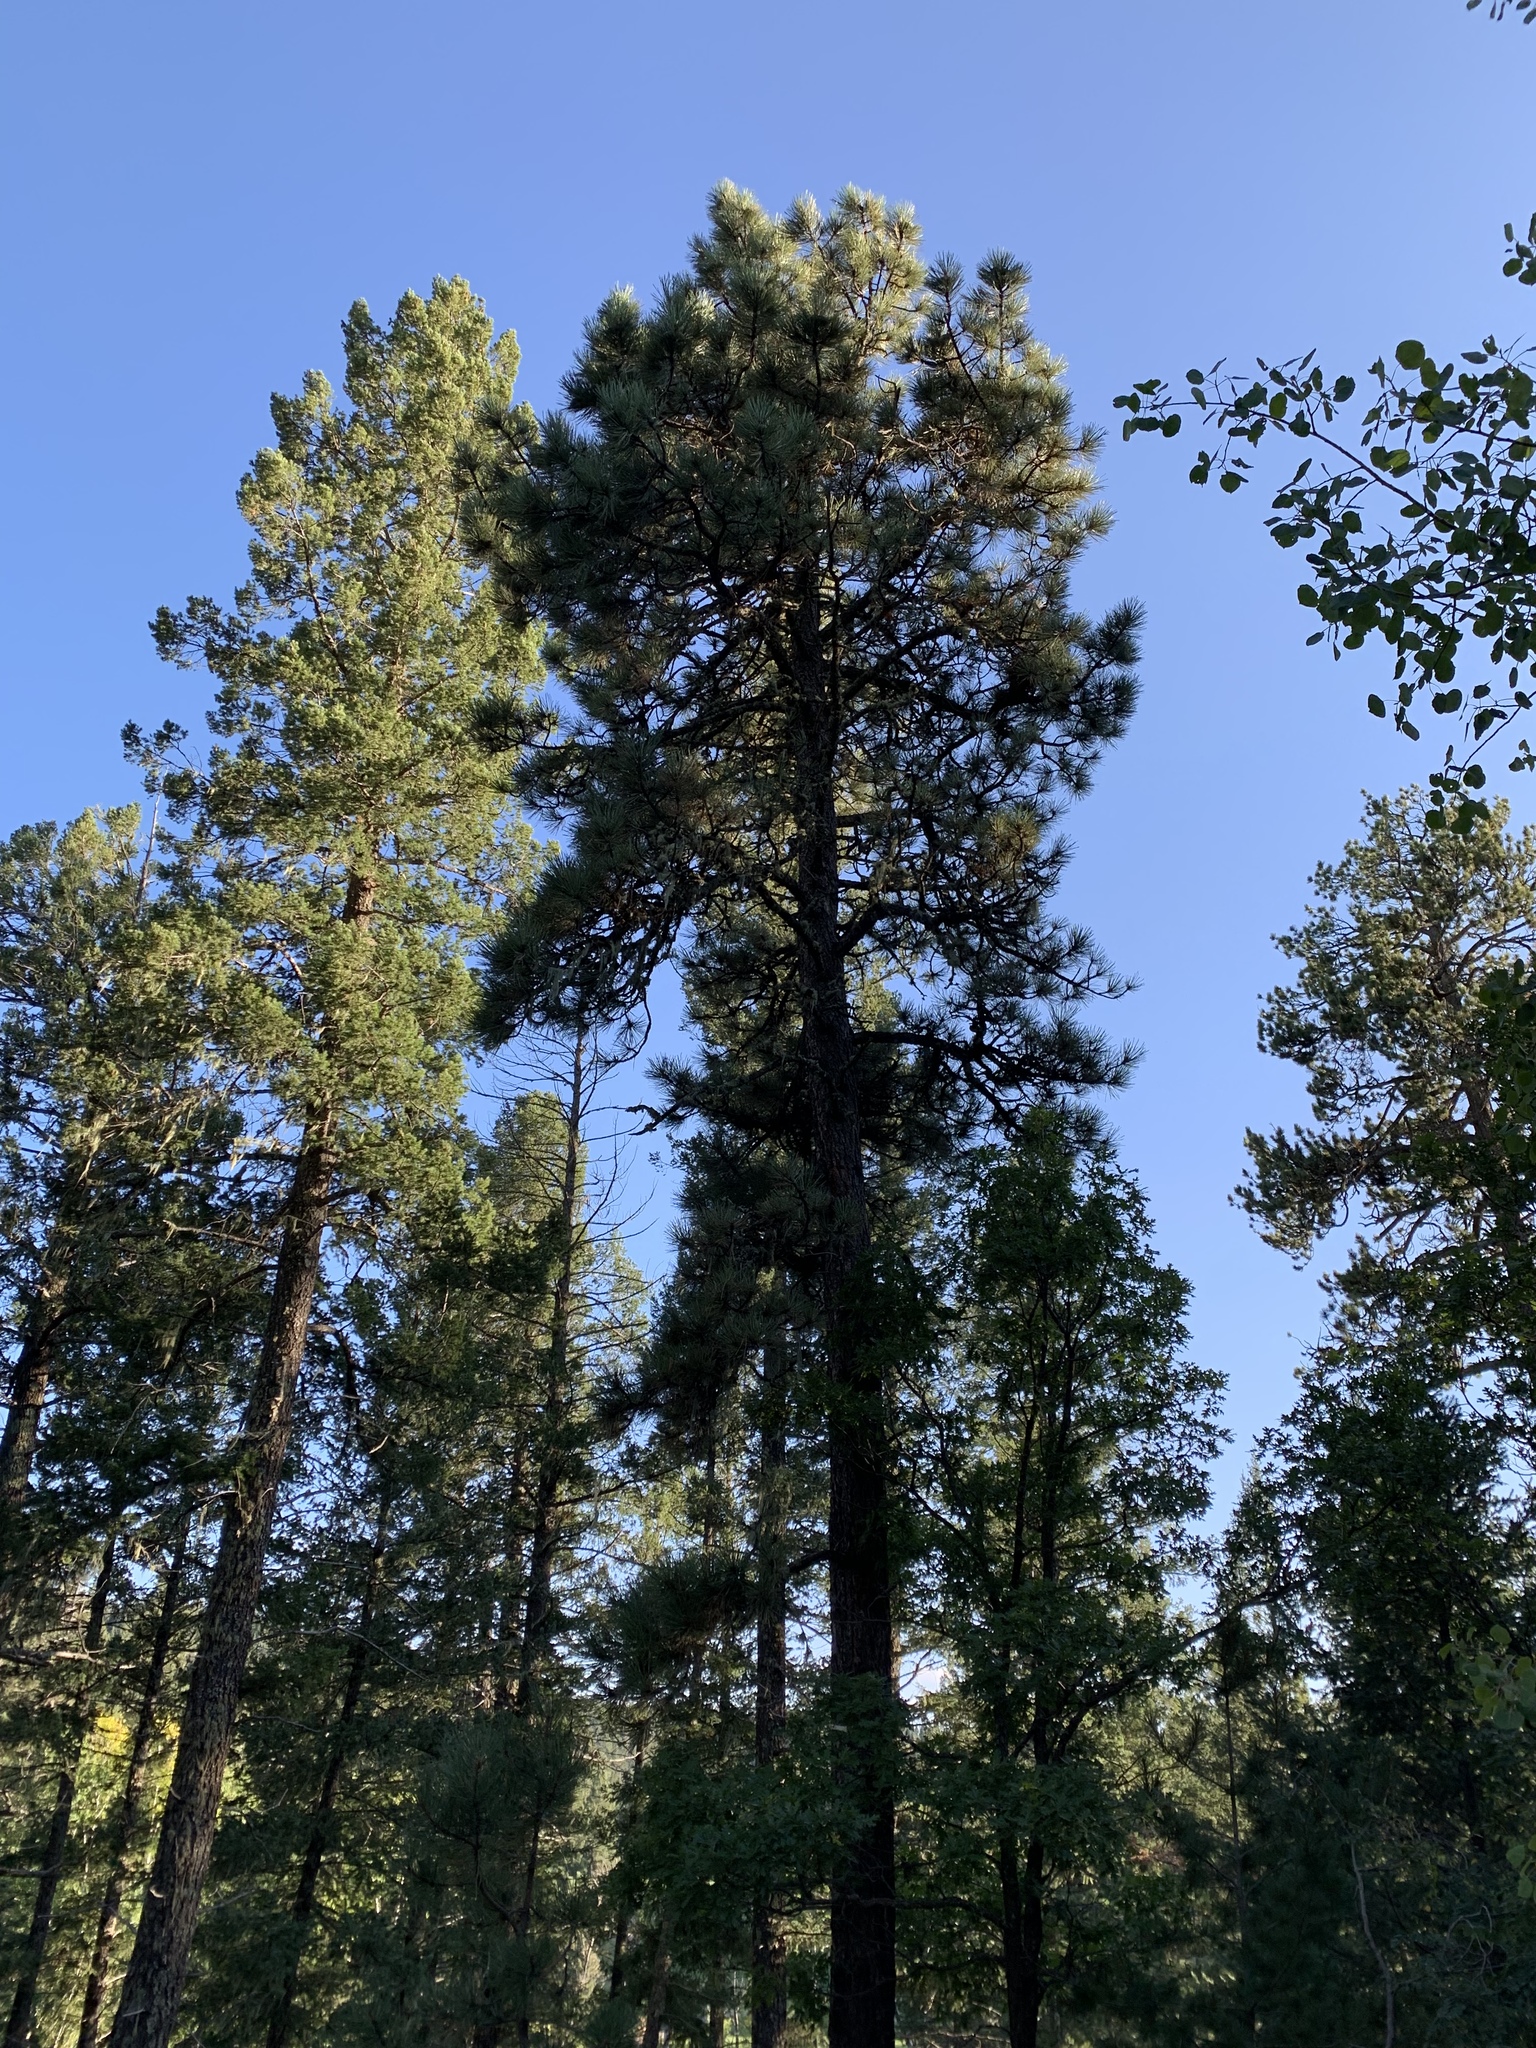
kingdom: Plantae
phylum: Tracheophyta
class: Pinopsida
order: Pinales
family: Pinaceae
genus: Pinus
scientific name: Pinus ponderosa
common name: Western yellow-pine
